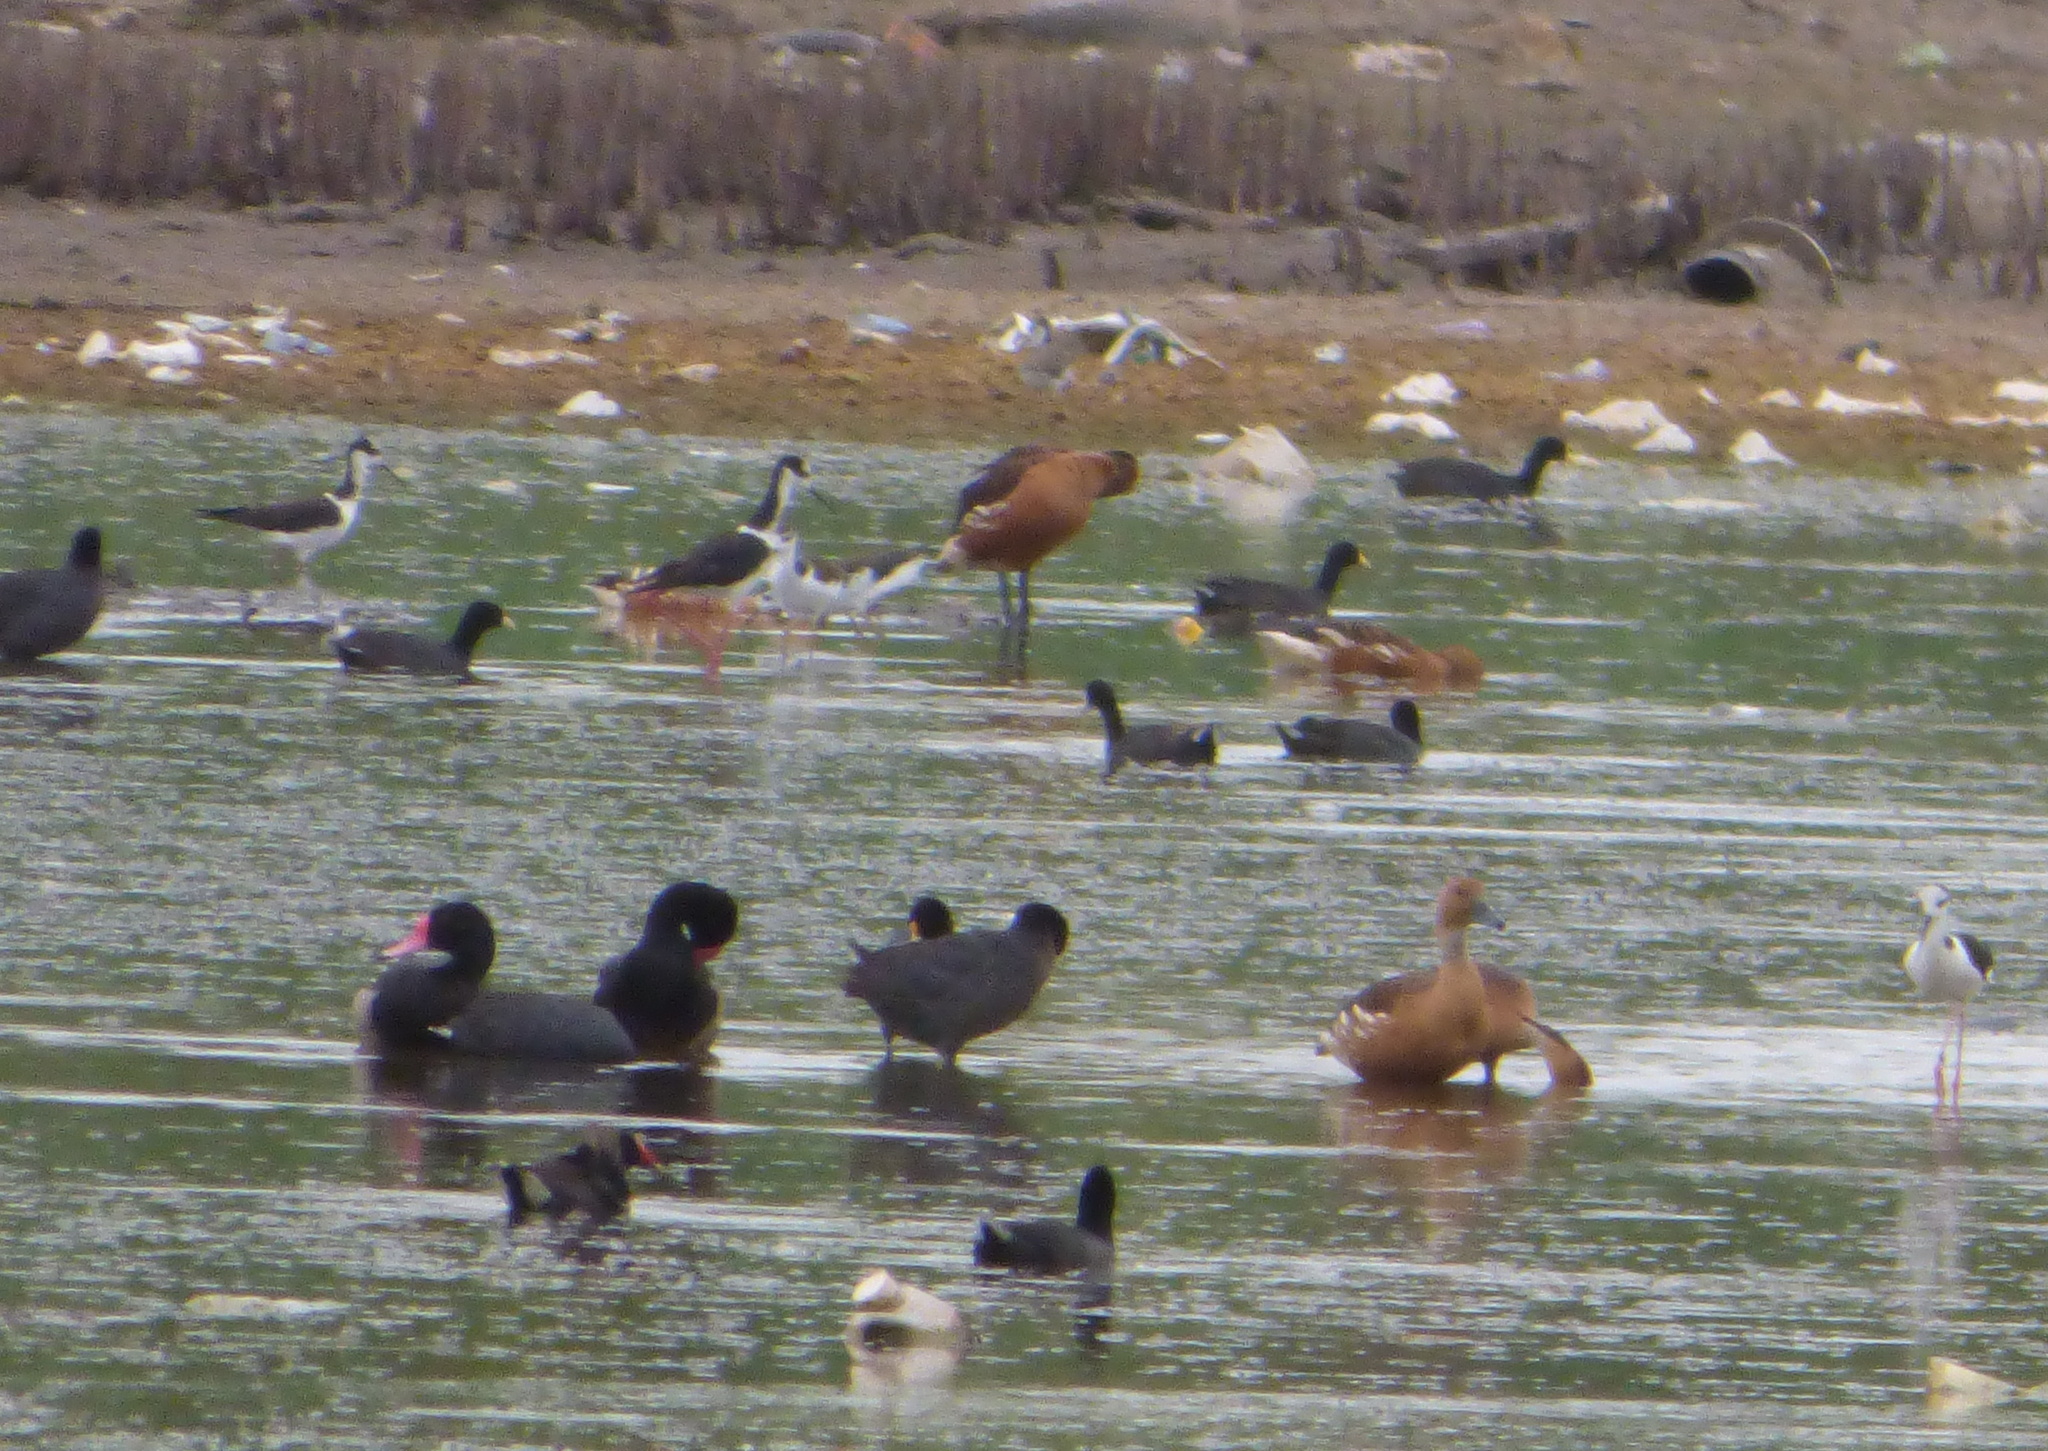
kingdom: Animalia
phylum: Chordata
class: Aves
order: Anseriformes
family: Anatidae
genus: Dendrocygna
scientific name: Dendrocygna bicolor
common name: Fulvous whistling duck
